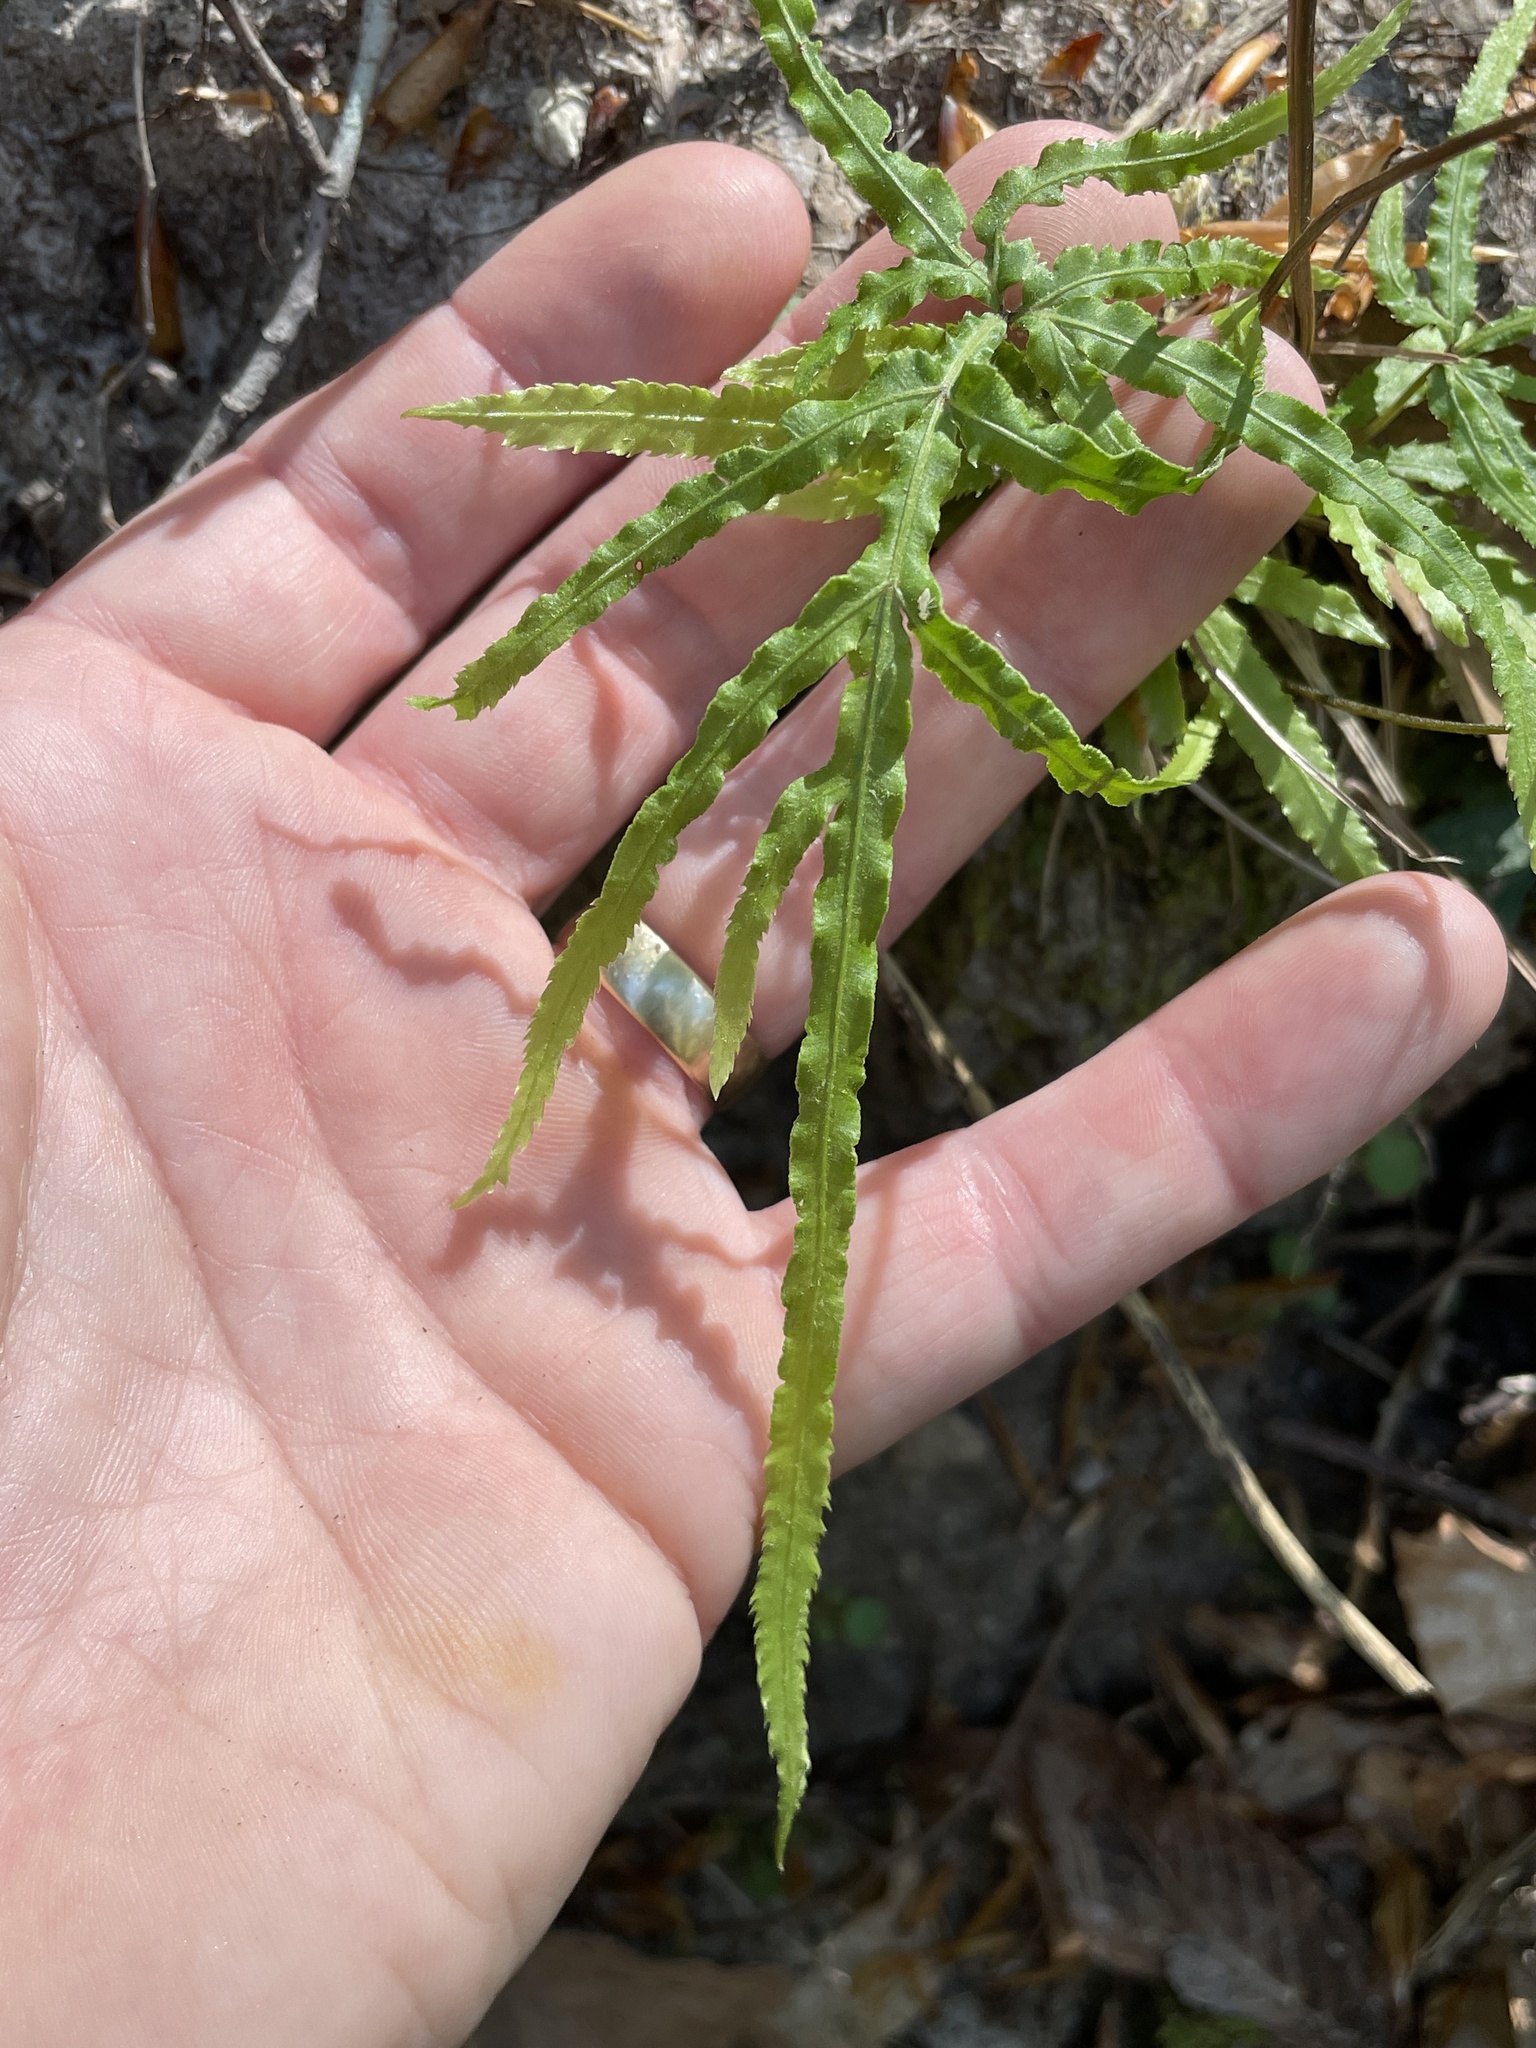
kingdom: Plantae
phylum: Tracheophyta
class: Polypodiopsida
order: Polypodiales
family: Pteridaceae
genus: Pteris
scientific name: Pteris multifida
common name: Spider brake
